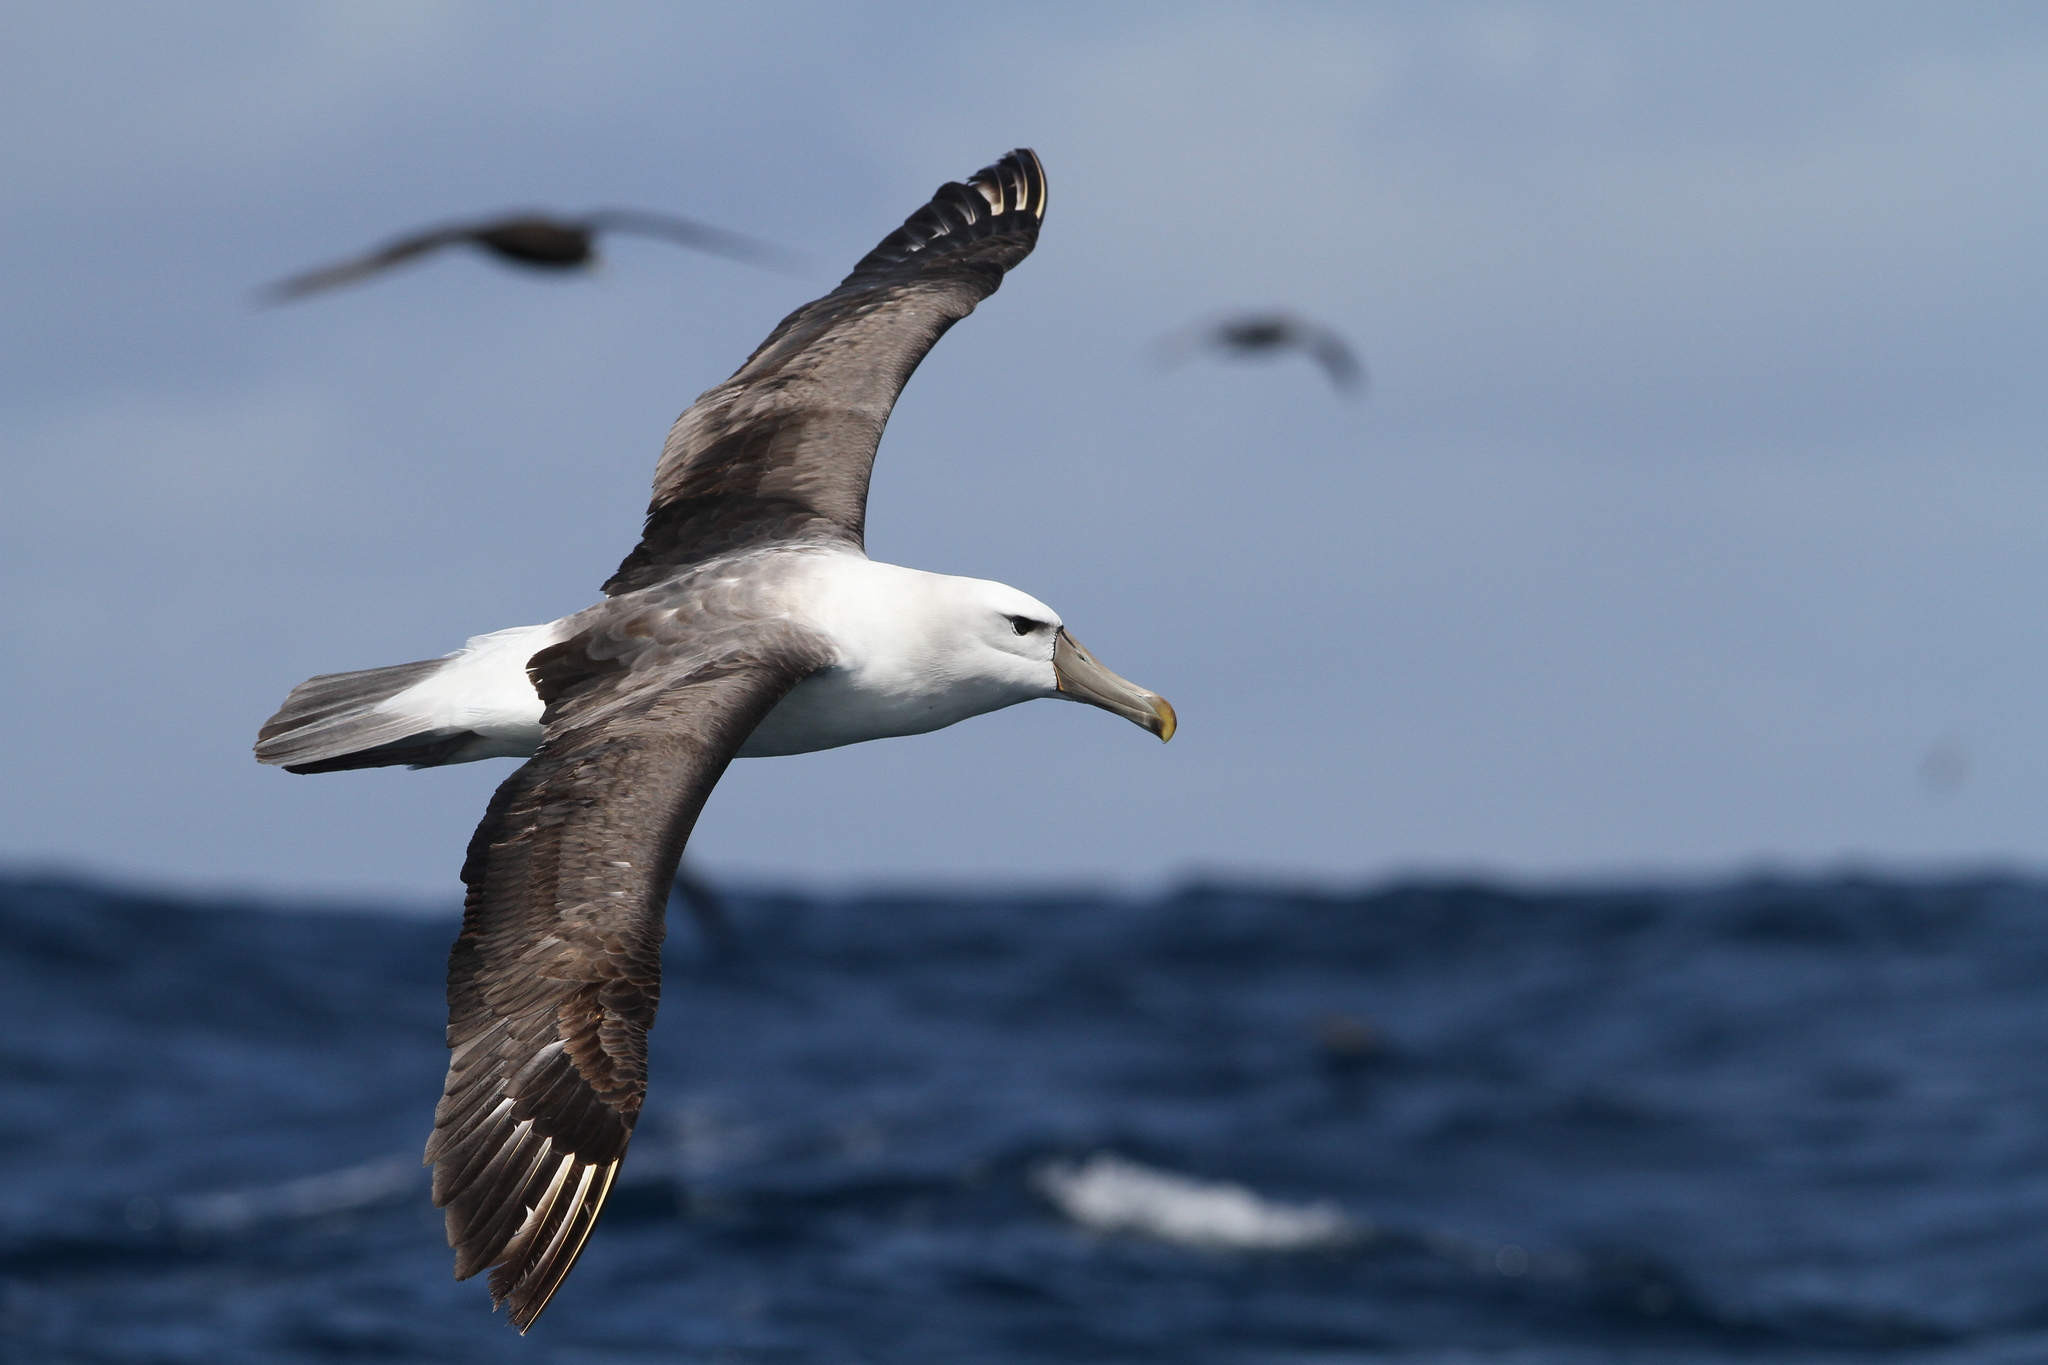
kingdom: Animalia
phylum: Chordata
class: Aves
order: Procellariiformes
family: Diomedeidae
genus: Thalassarche
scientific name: Thalassarche cauta
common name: Shy albatross
